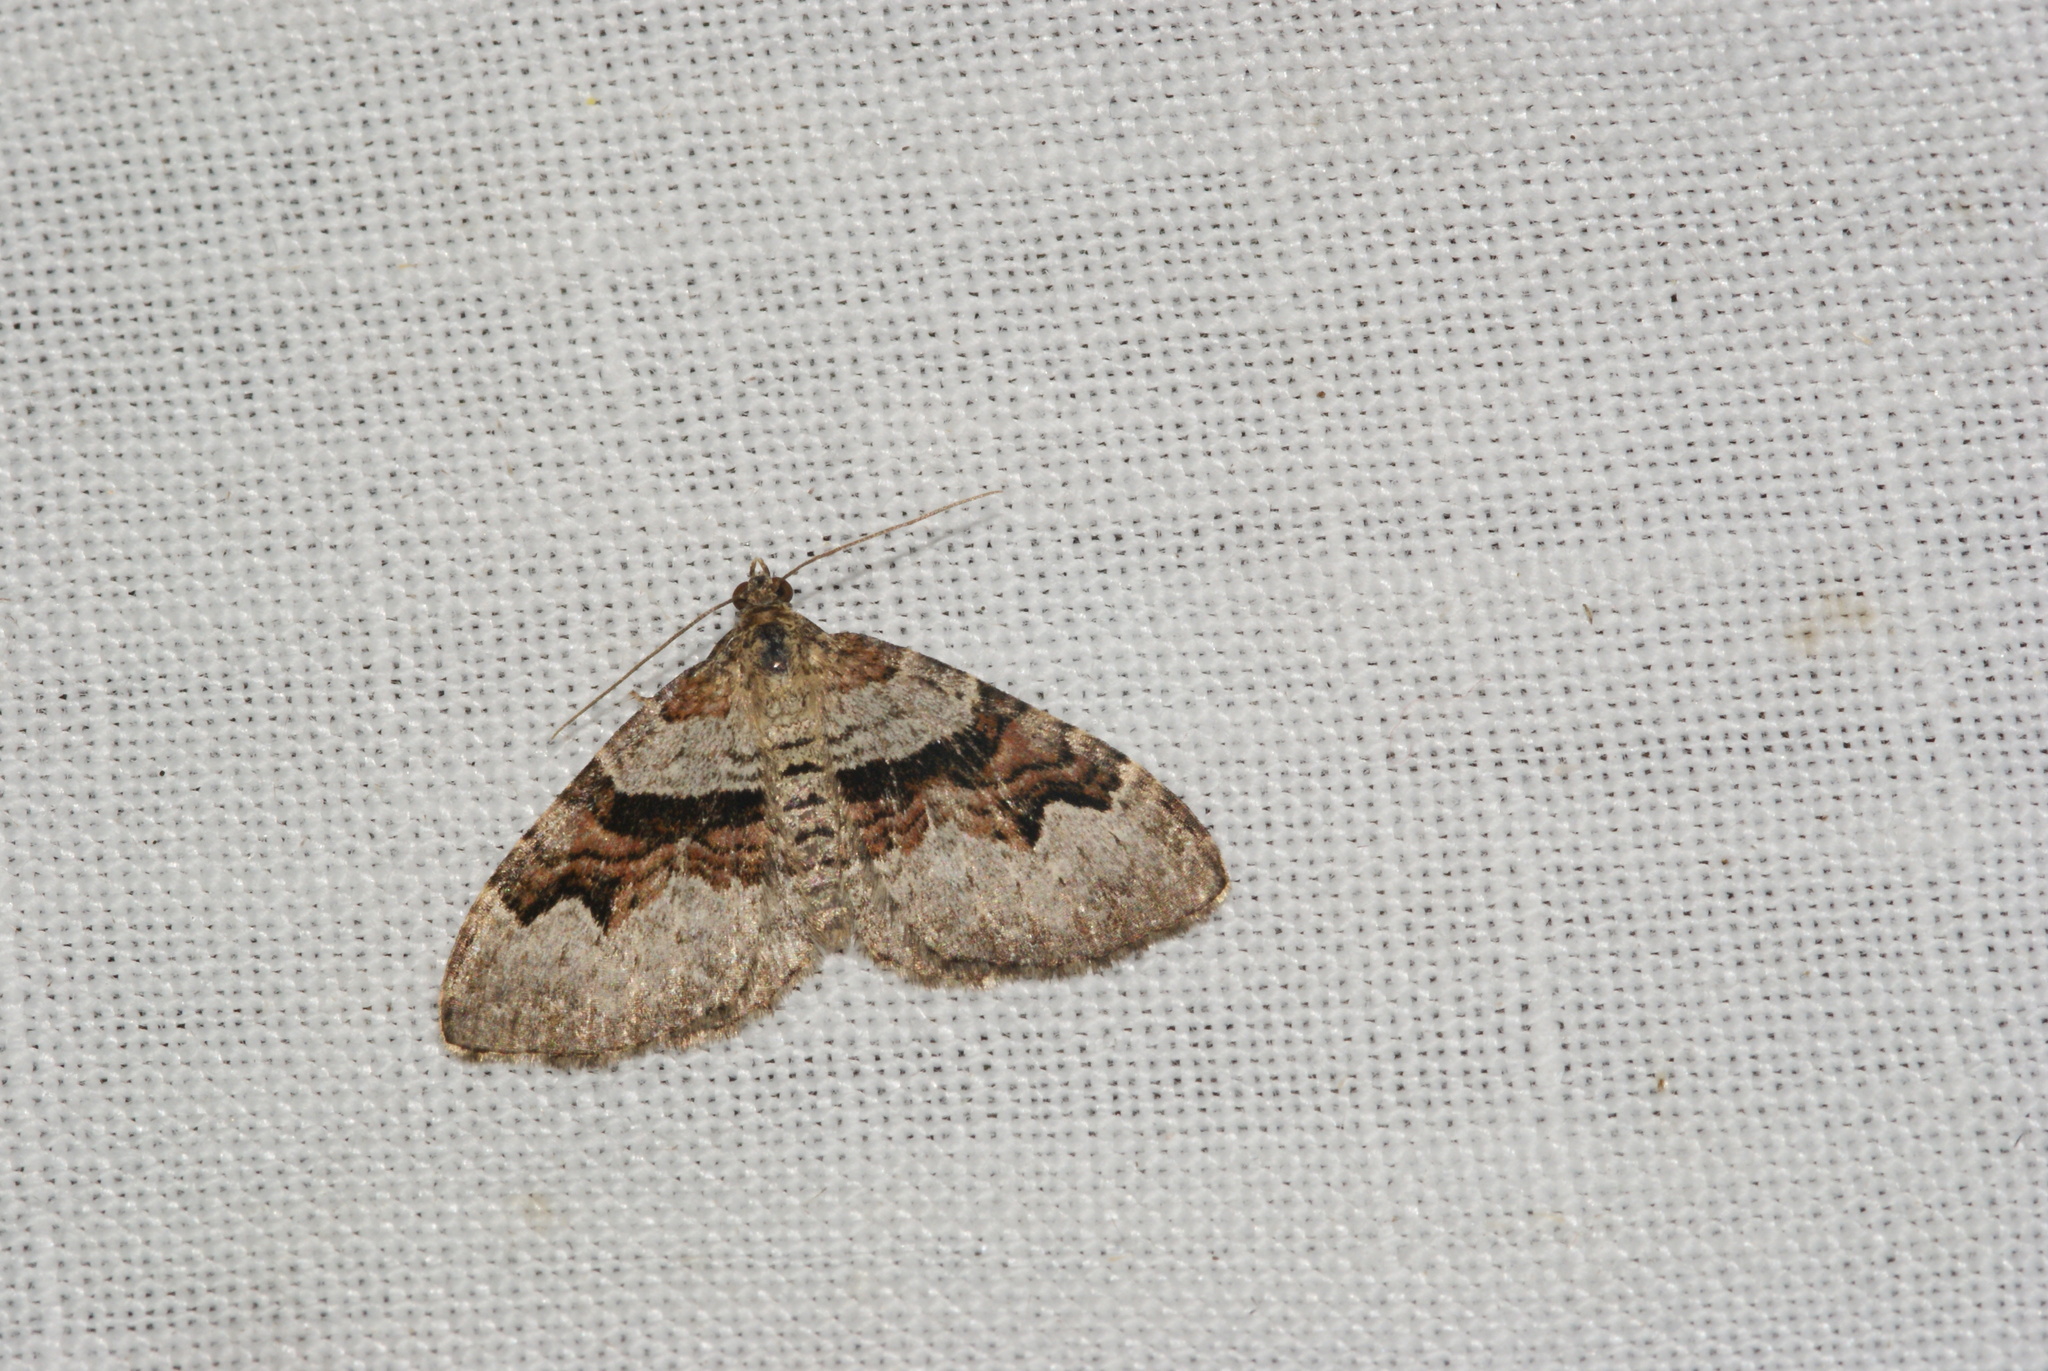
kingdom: Animalia
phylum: Arthropoda
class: Insecta
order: Lepidoptera
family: Geometridae
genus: Xanthorhoe
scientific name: Xanthorhoe designata
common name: Flame carpet
